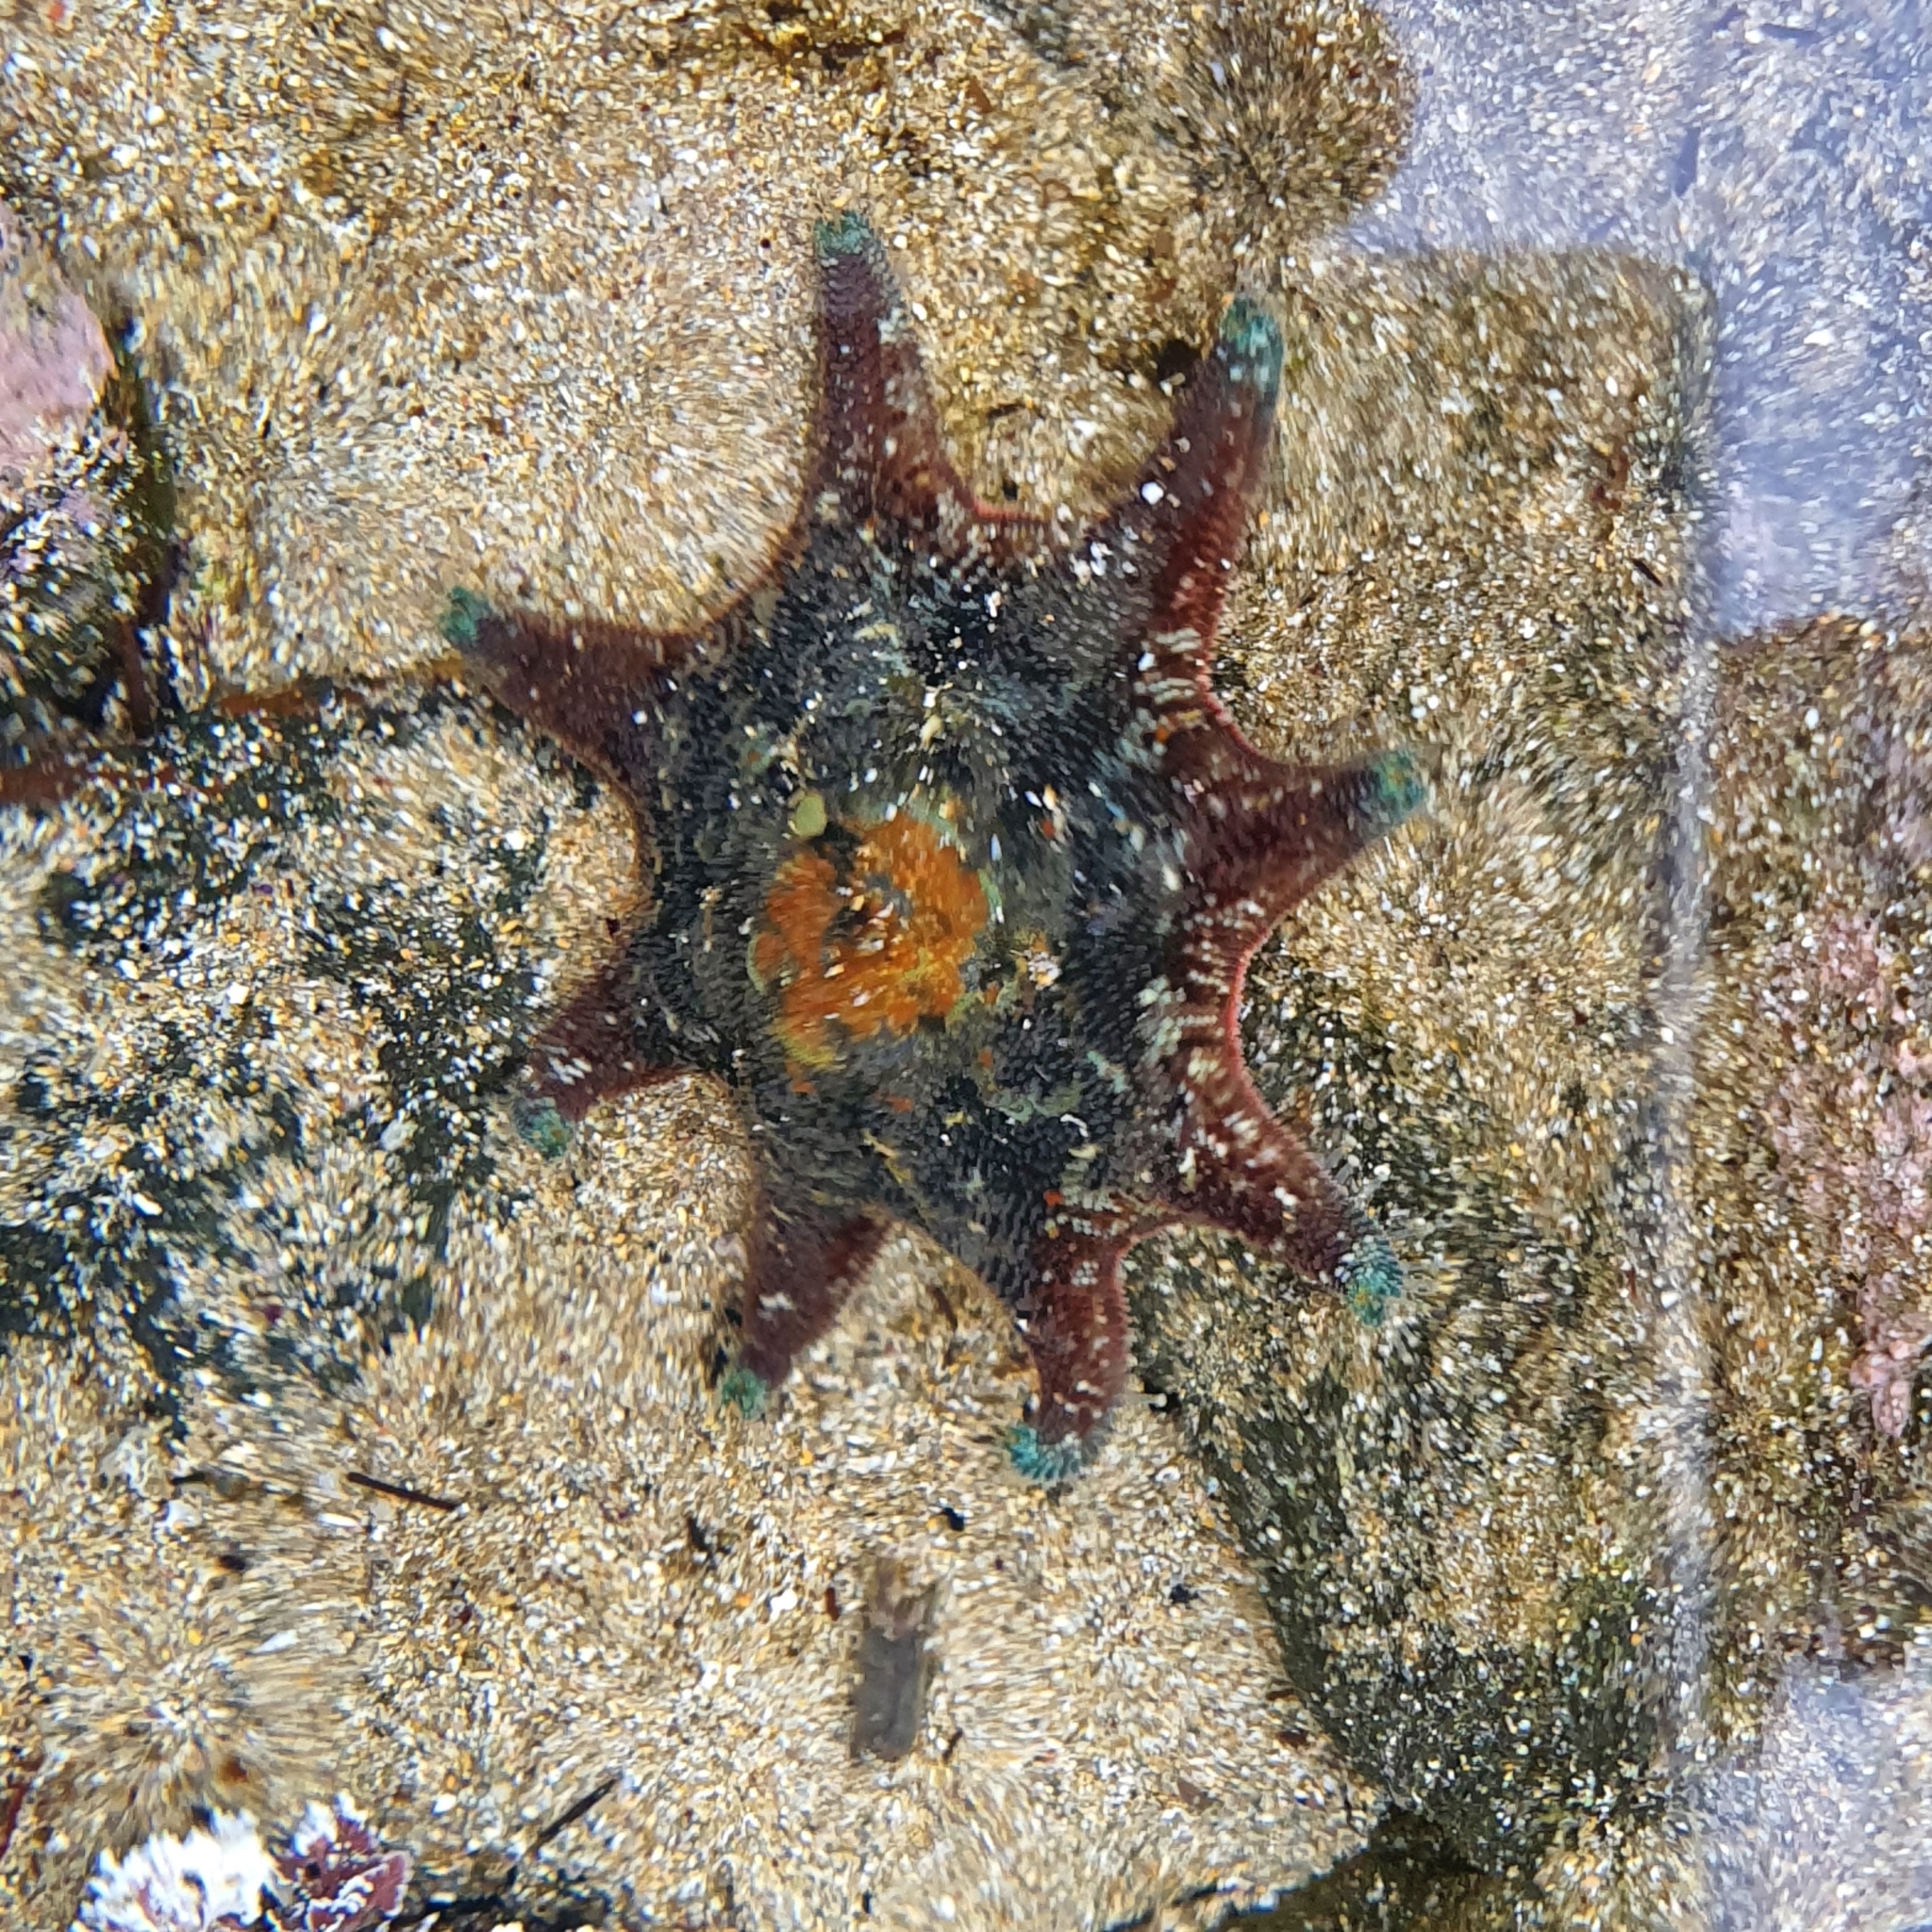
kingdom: Animalia
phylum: Echinodermata
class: Asteroidea
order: Valvatida
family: Asterinidae
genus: Meridiastra
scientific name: Meridiastra calcar
